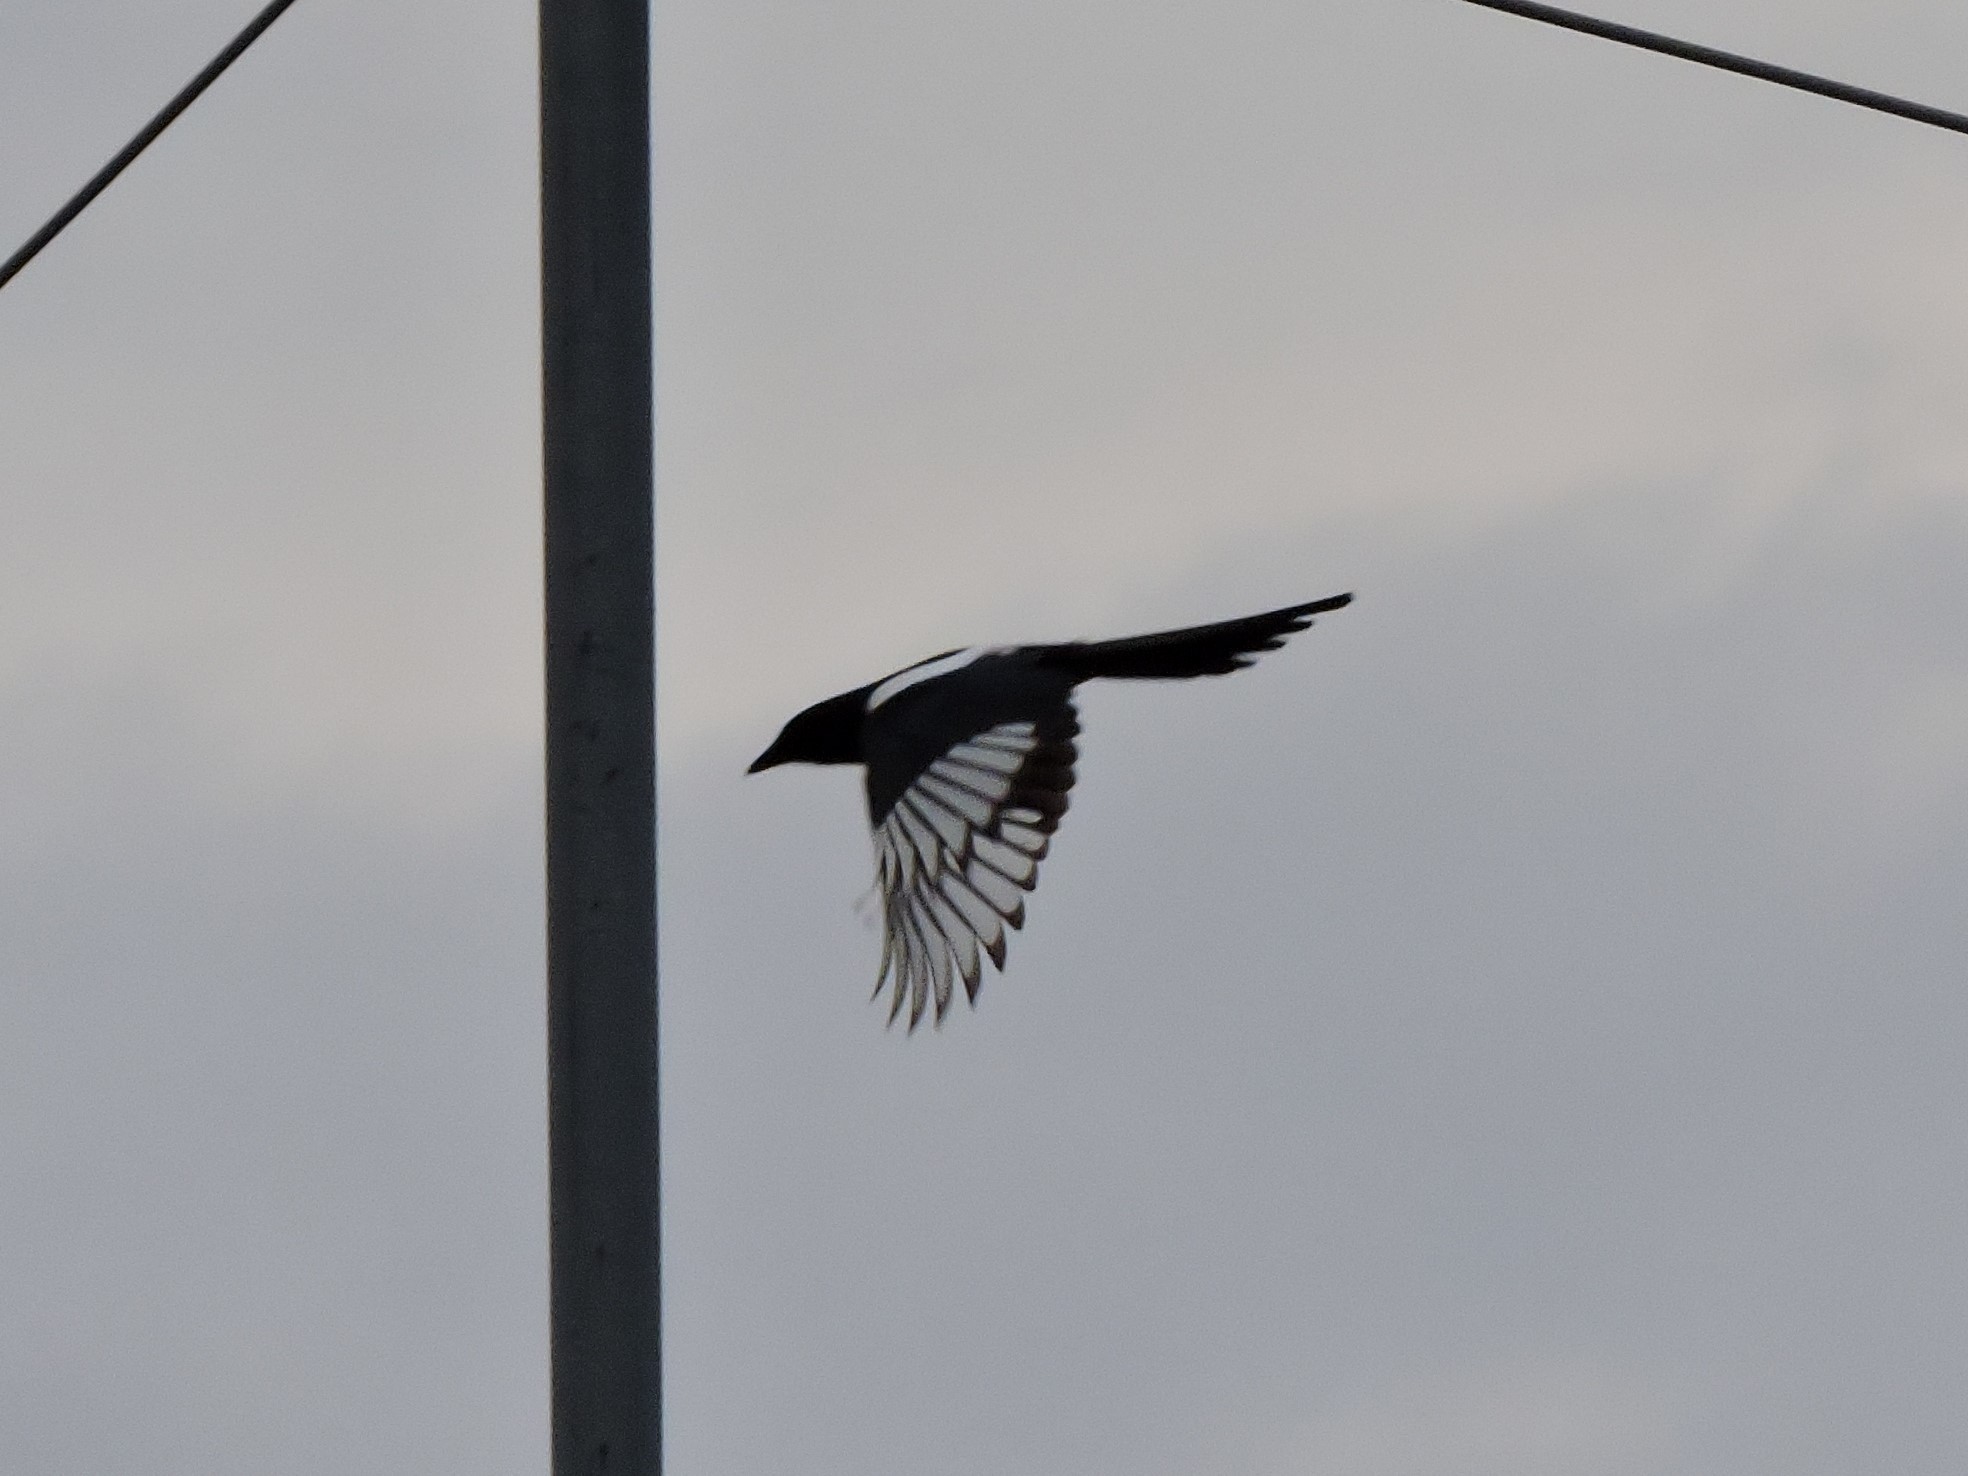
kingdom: Animalia
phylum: Chordata
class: Aves
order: Passeriformes
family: Corvidae
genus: Pica
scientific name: Pica pica
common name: Eurasian magpie
